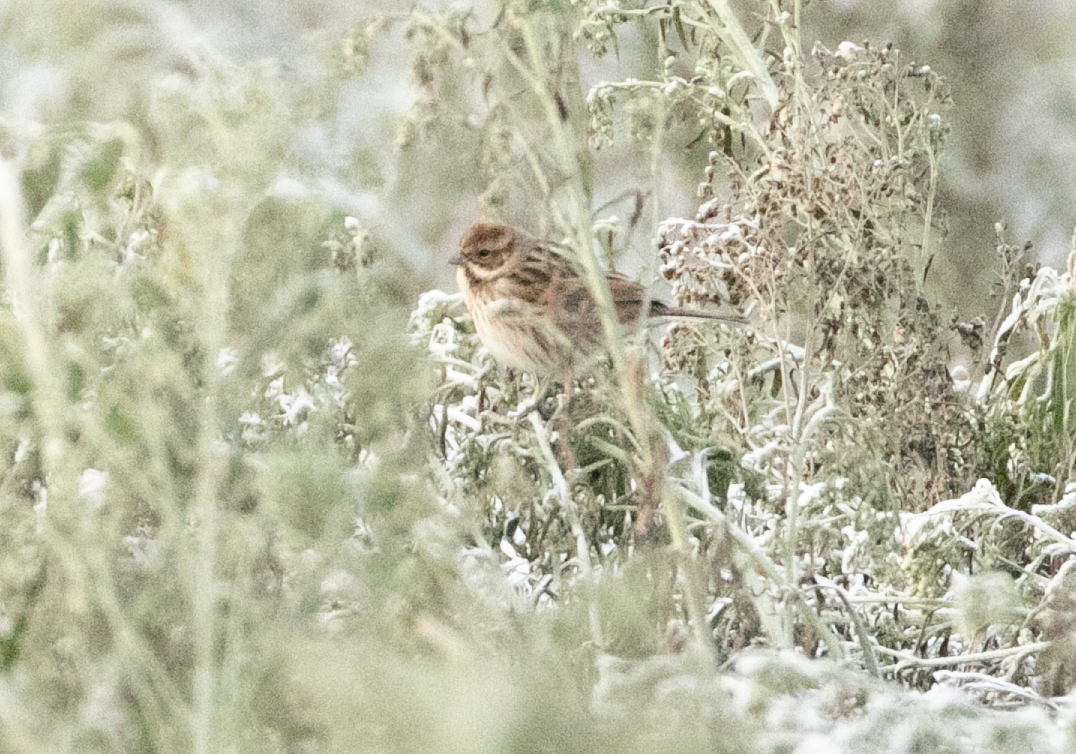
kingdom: Animalia
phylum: Chordata
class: Aves
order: Passeriformes
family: Emberizidae
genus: Emberiza
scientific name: Emberiza schoeniclus
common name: Reed bunting
